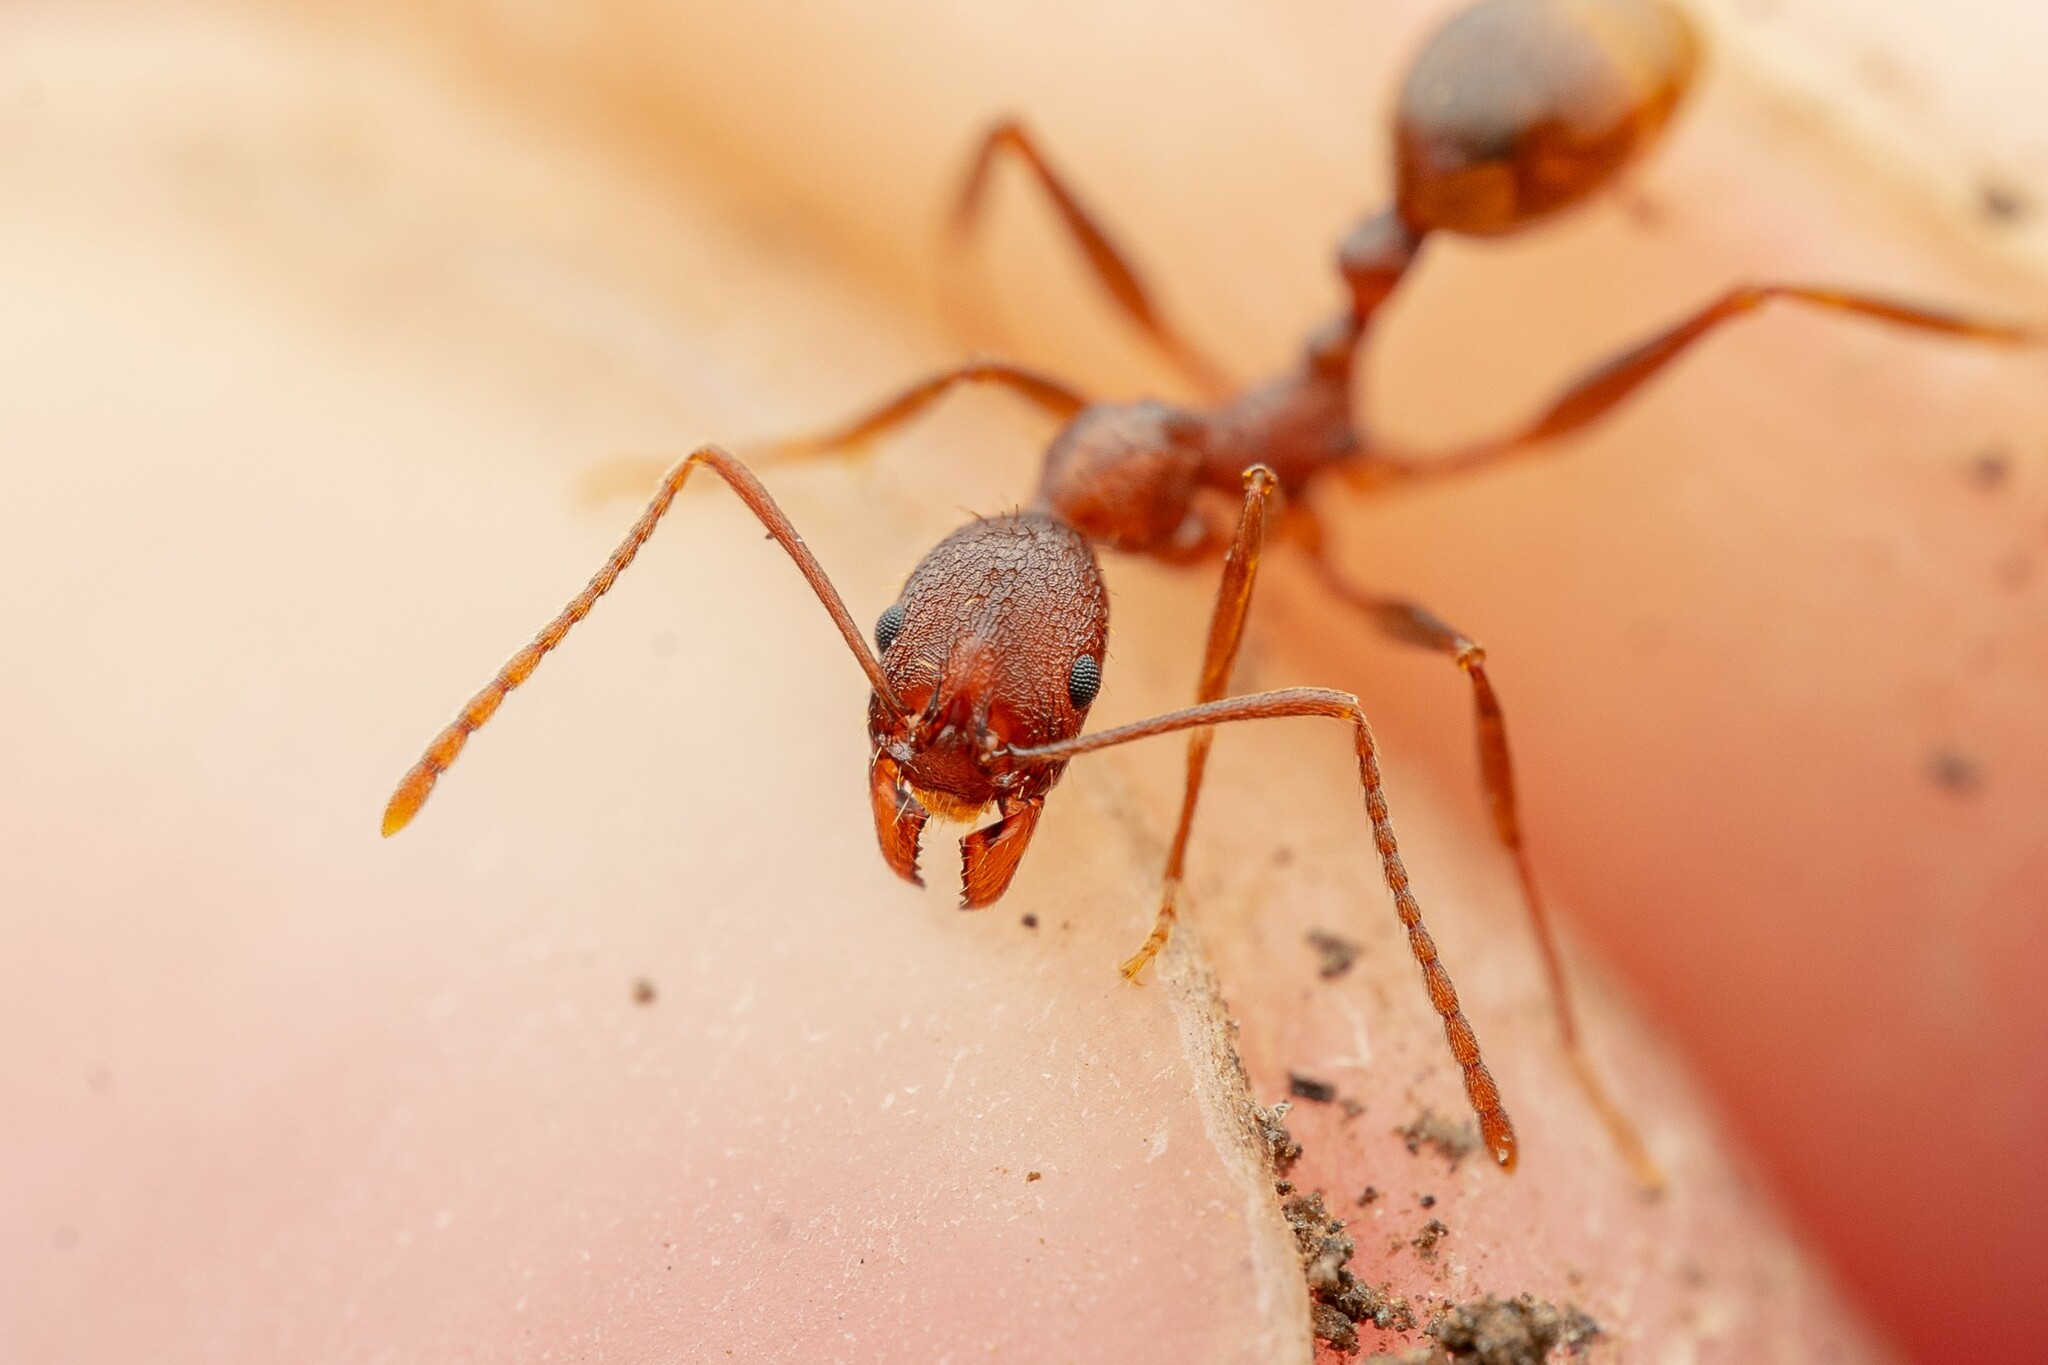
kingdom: Animalia
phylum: Arthropoda
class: Insecta
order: Hymenoptera
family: Formicidae
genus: Aphaenogaster
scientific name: Aphaenogaster texana
